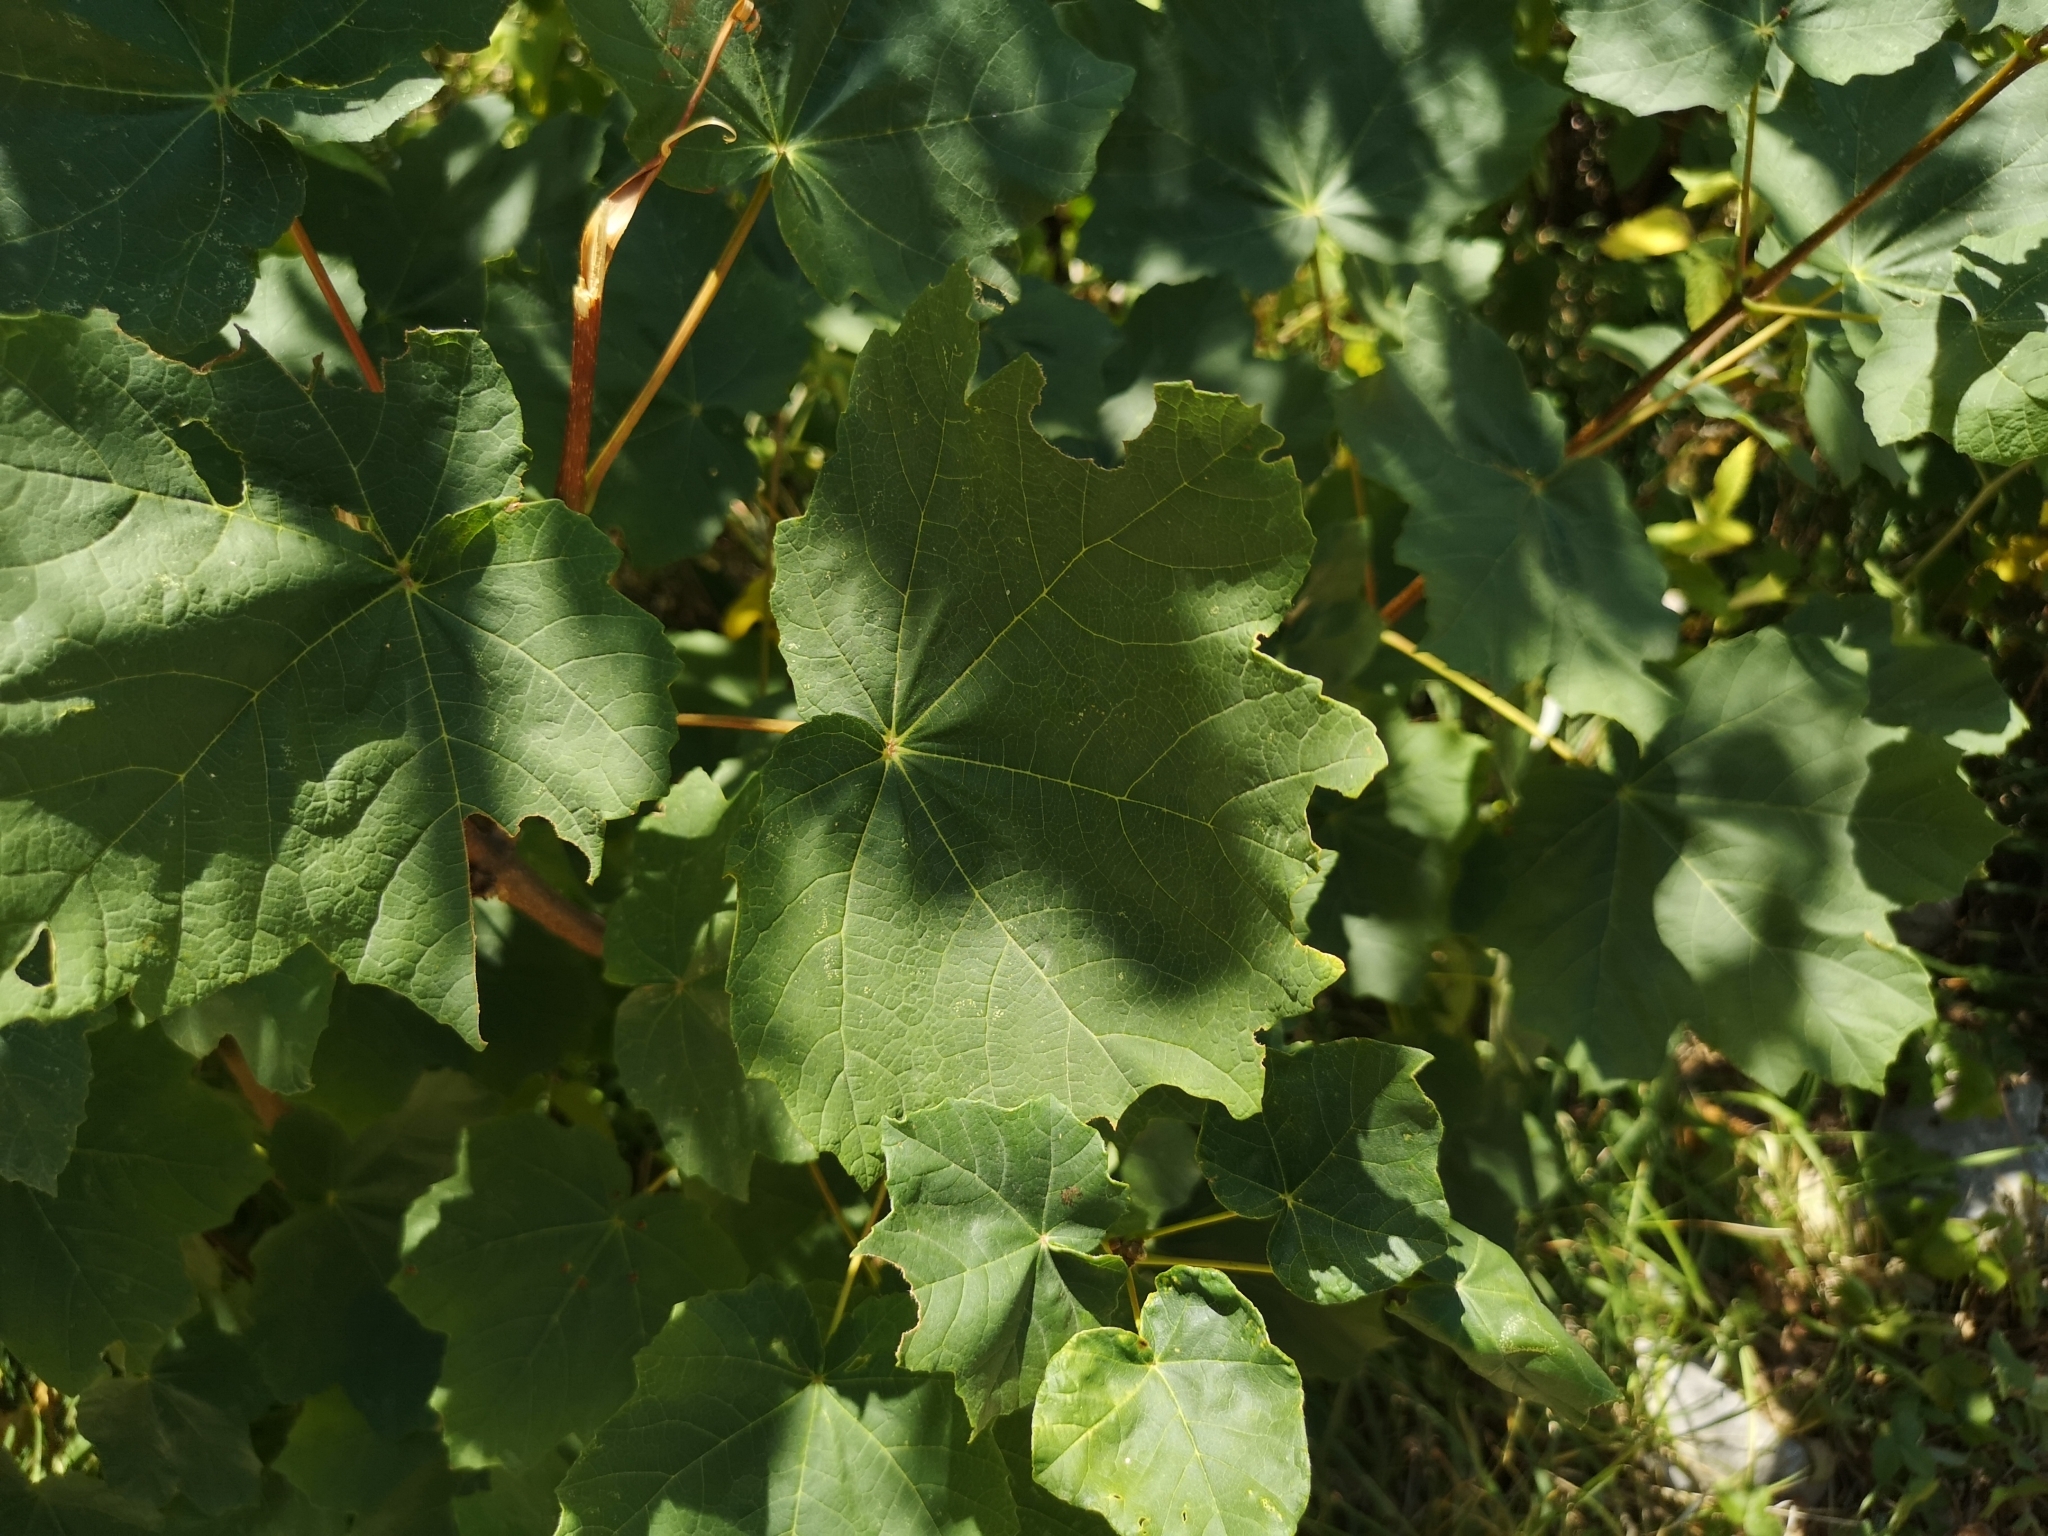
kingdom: Plantae
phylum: Tracheophyta
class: Magnoliopsida
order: Sapindales
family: Sapindaceae
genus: Acer
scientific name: Acer obtusatum
